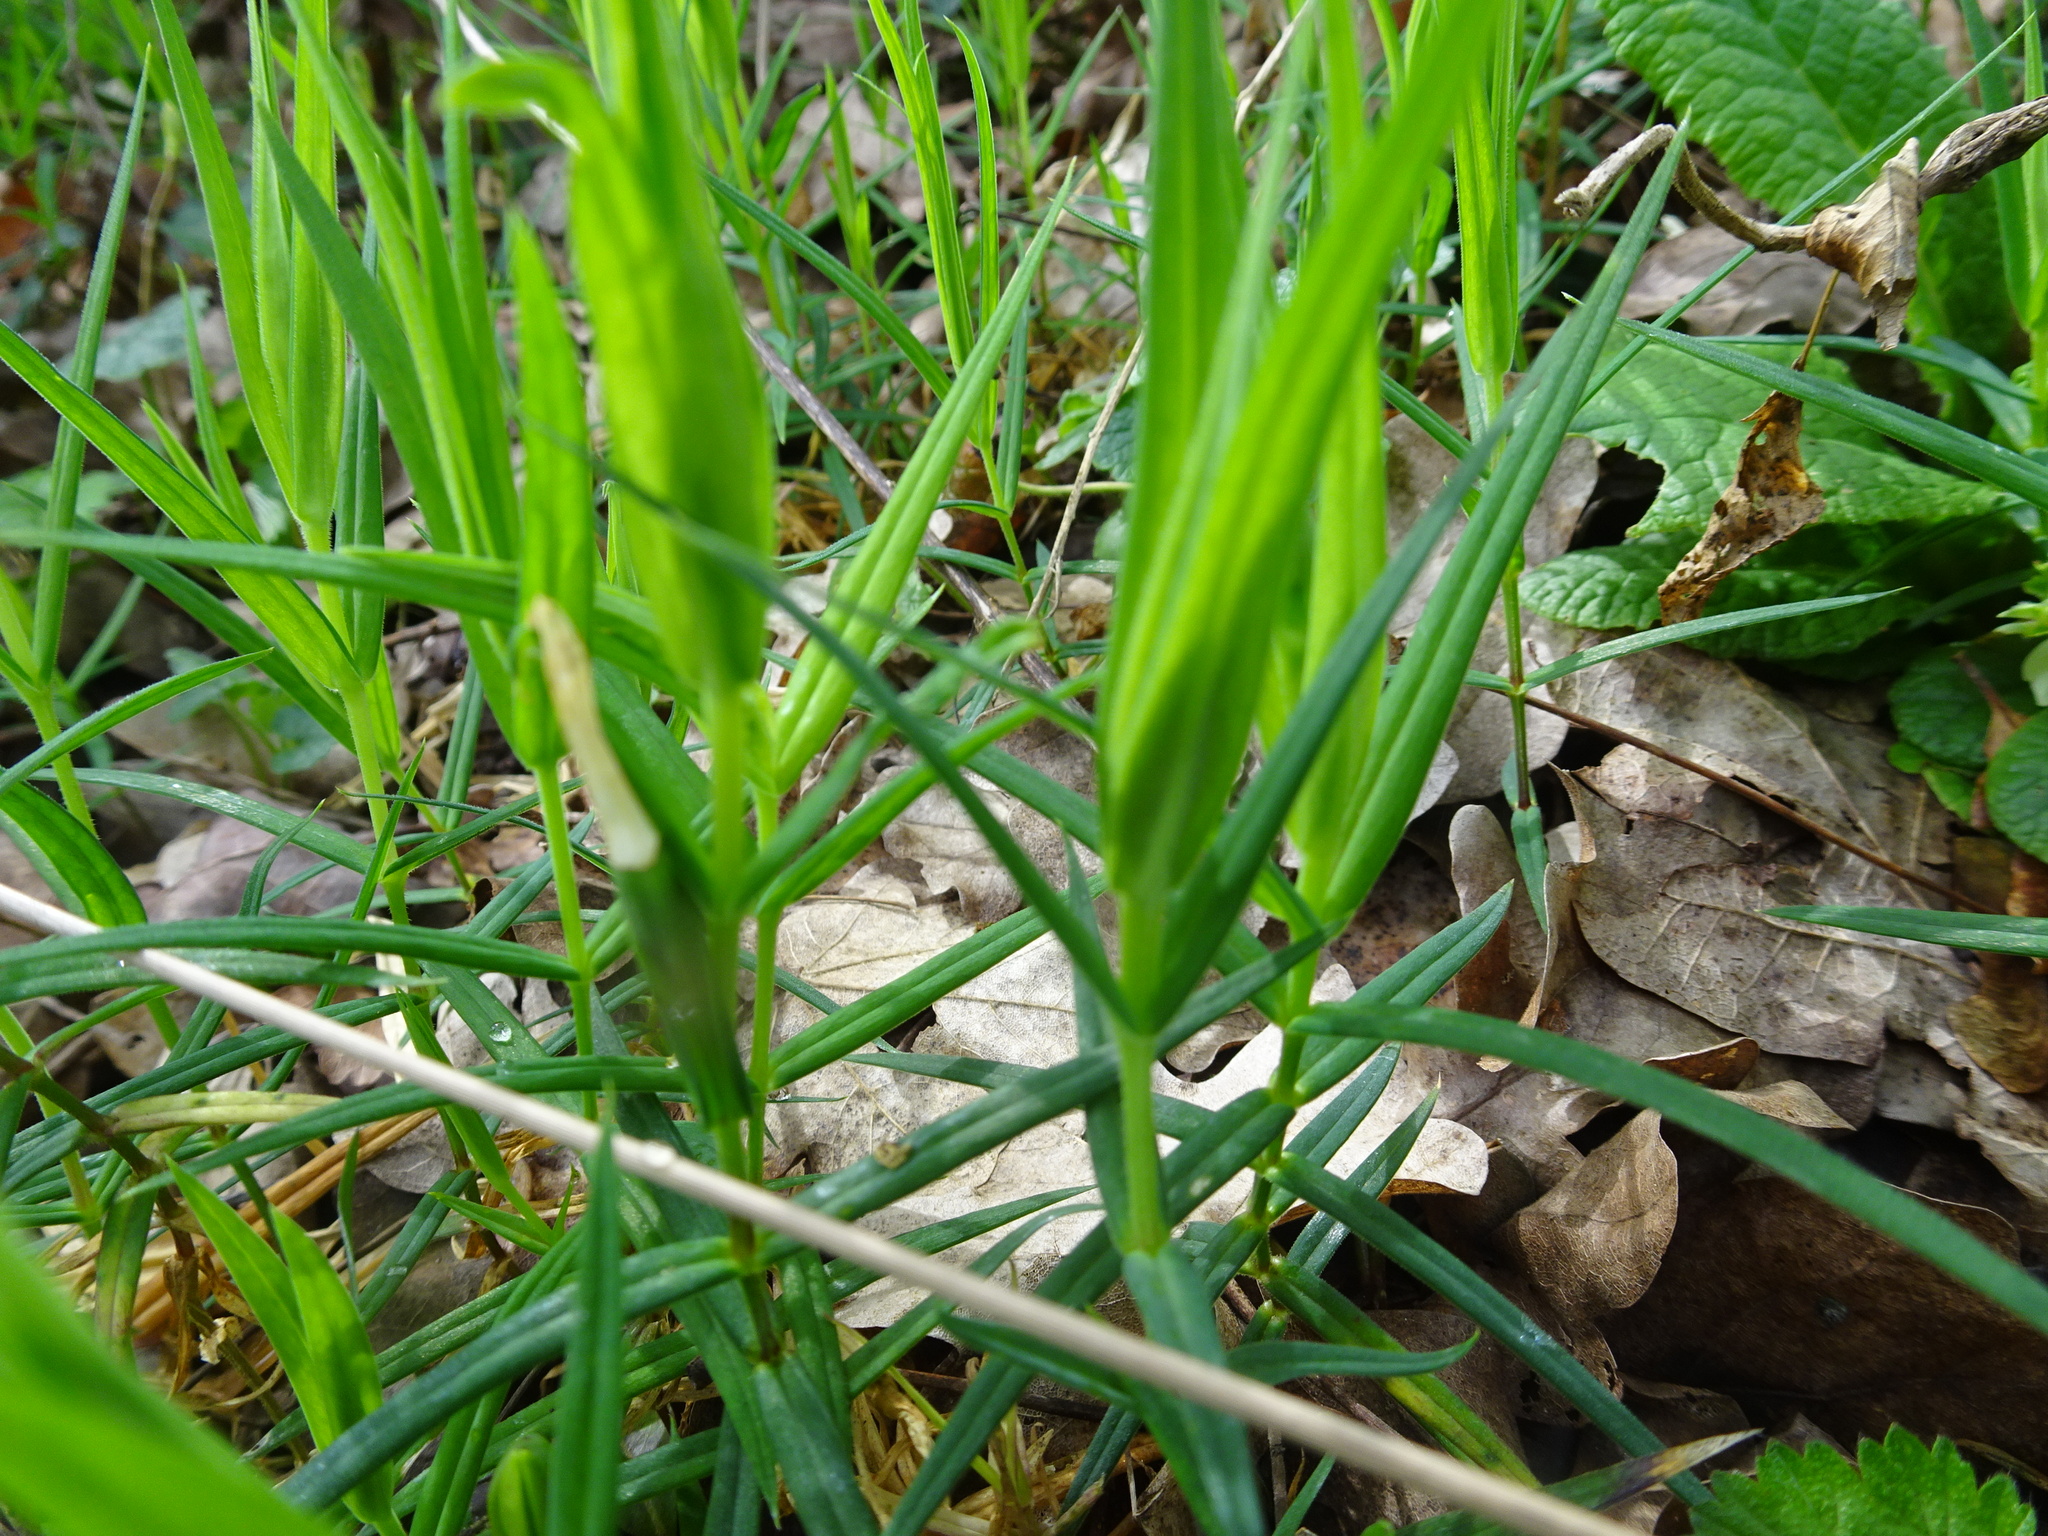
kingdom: Plantae
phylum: Tracheophyta
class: Magnoliopsida
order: Caryophyllales
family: Caryophyllaceae
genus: Rabelera
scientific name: Rabelera holostea
